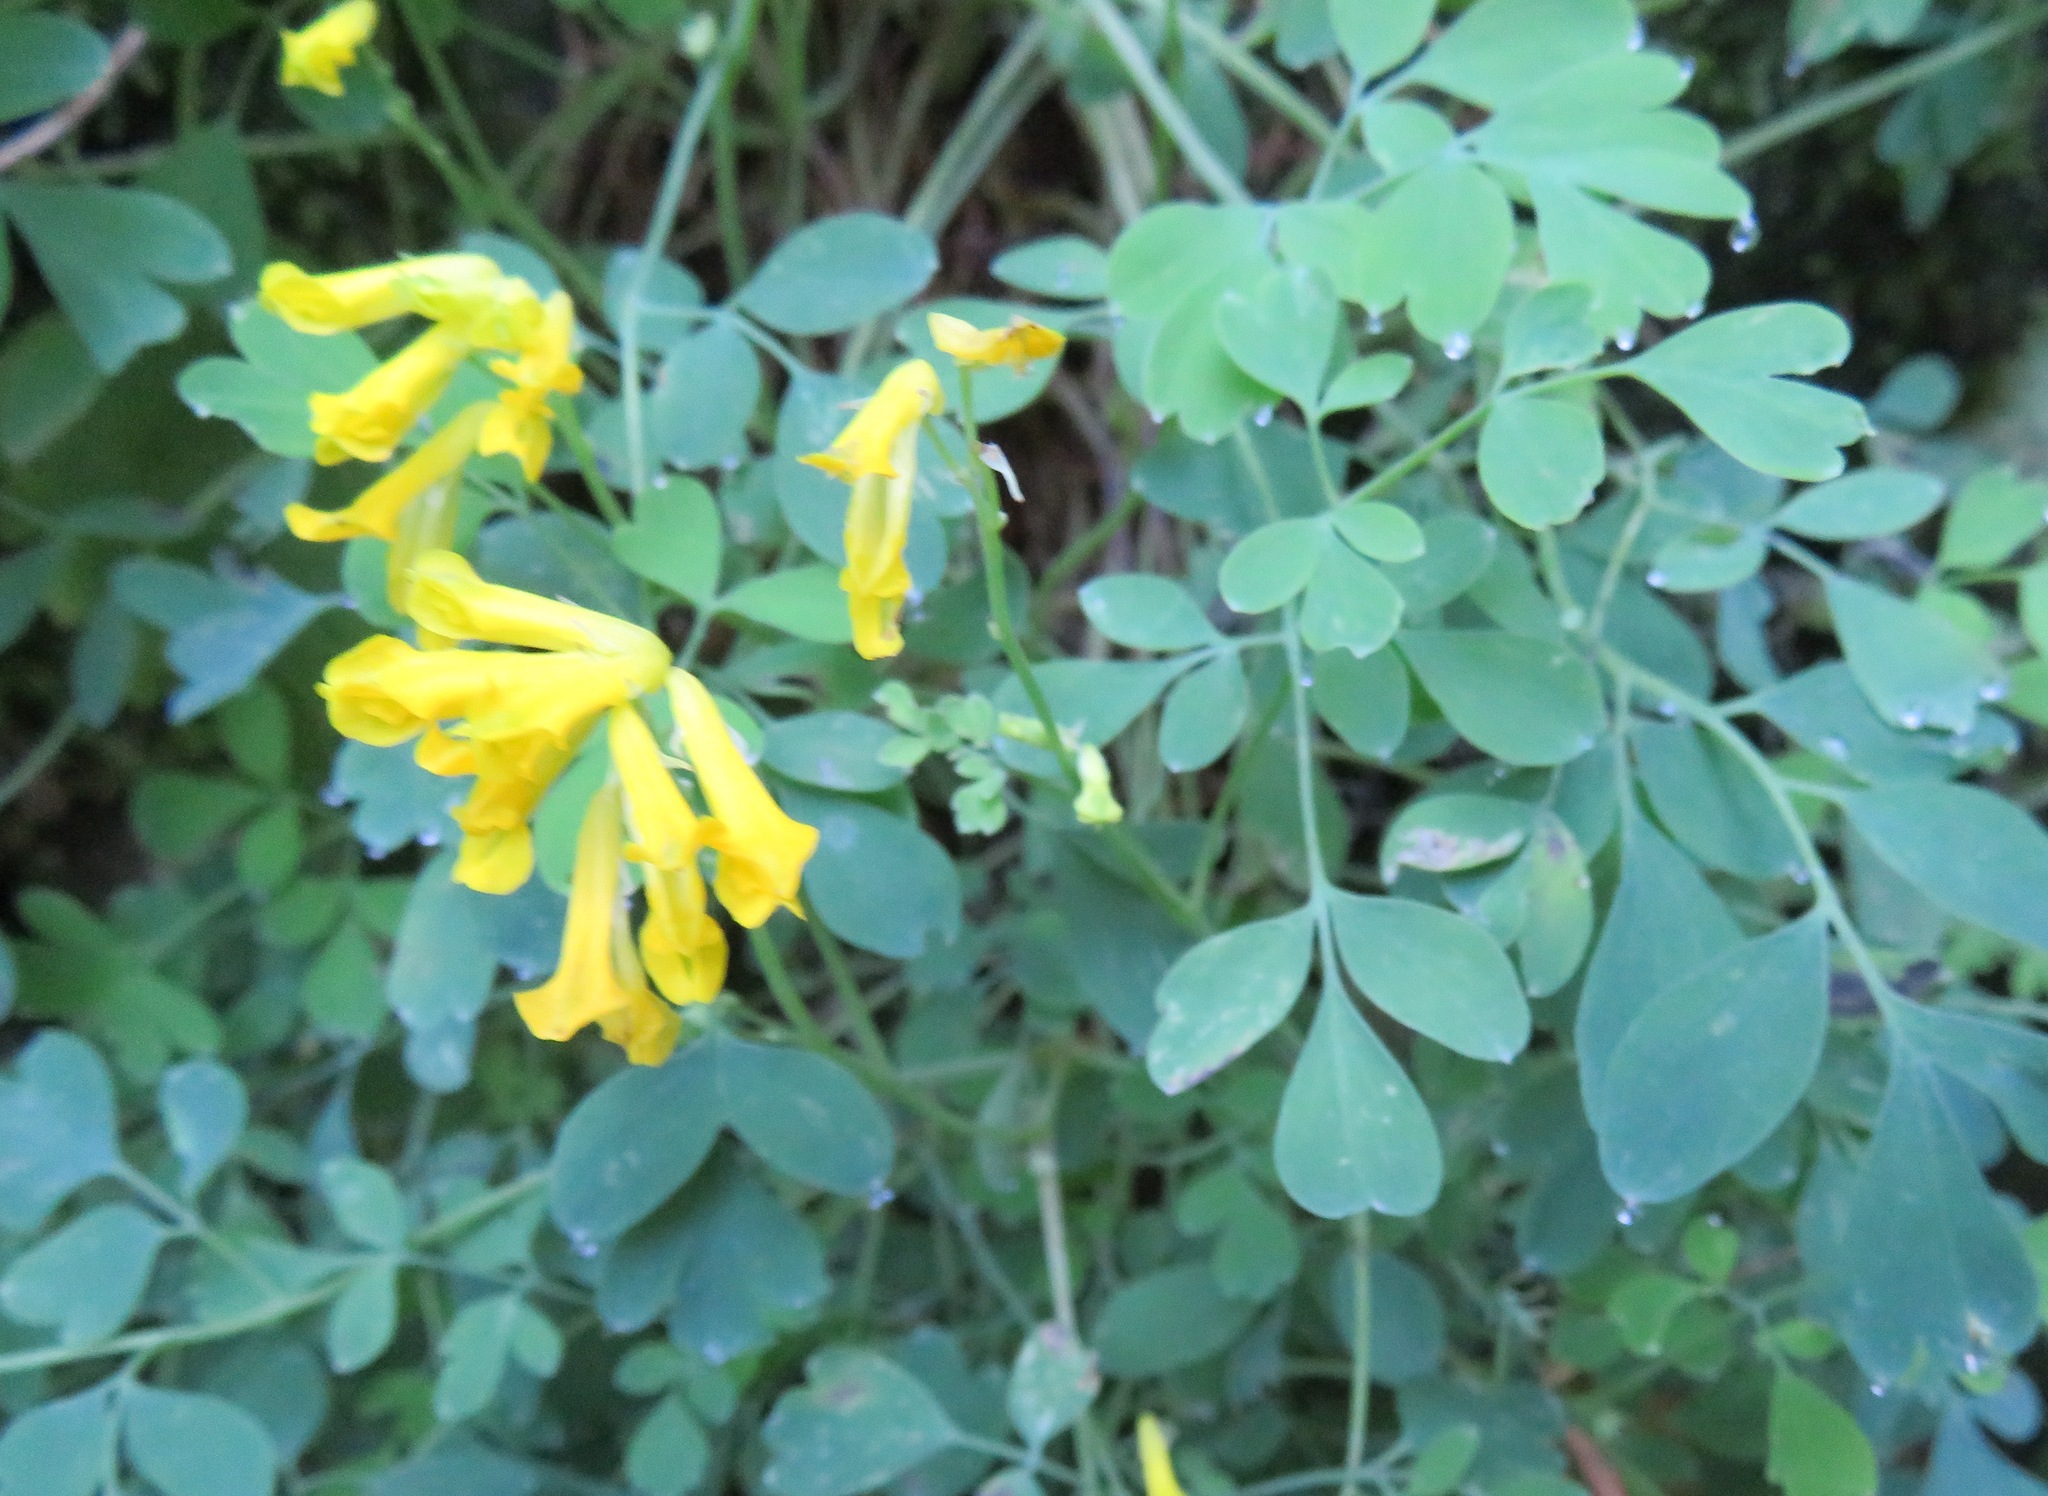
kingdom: Plantae
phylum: Tracheophyta
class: Magnoliopsida
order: Ranunculales
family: Papaveraceae
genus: Pseudofumaria
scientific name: Pseudofumaria lutea
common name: Yellow corydalis
